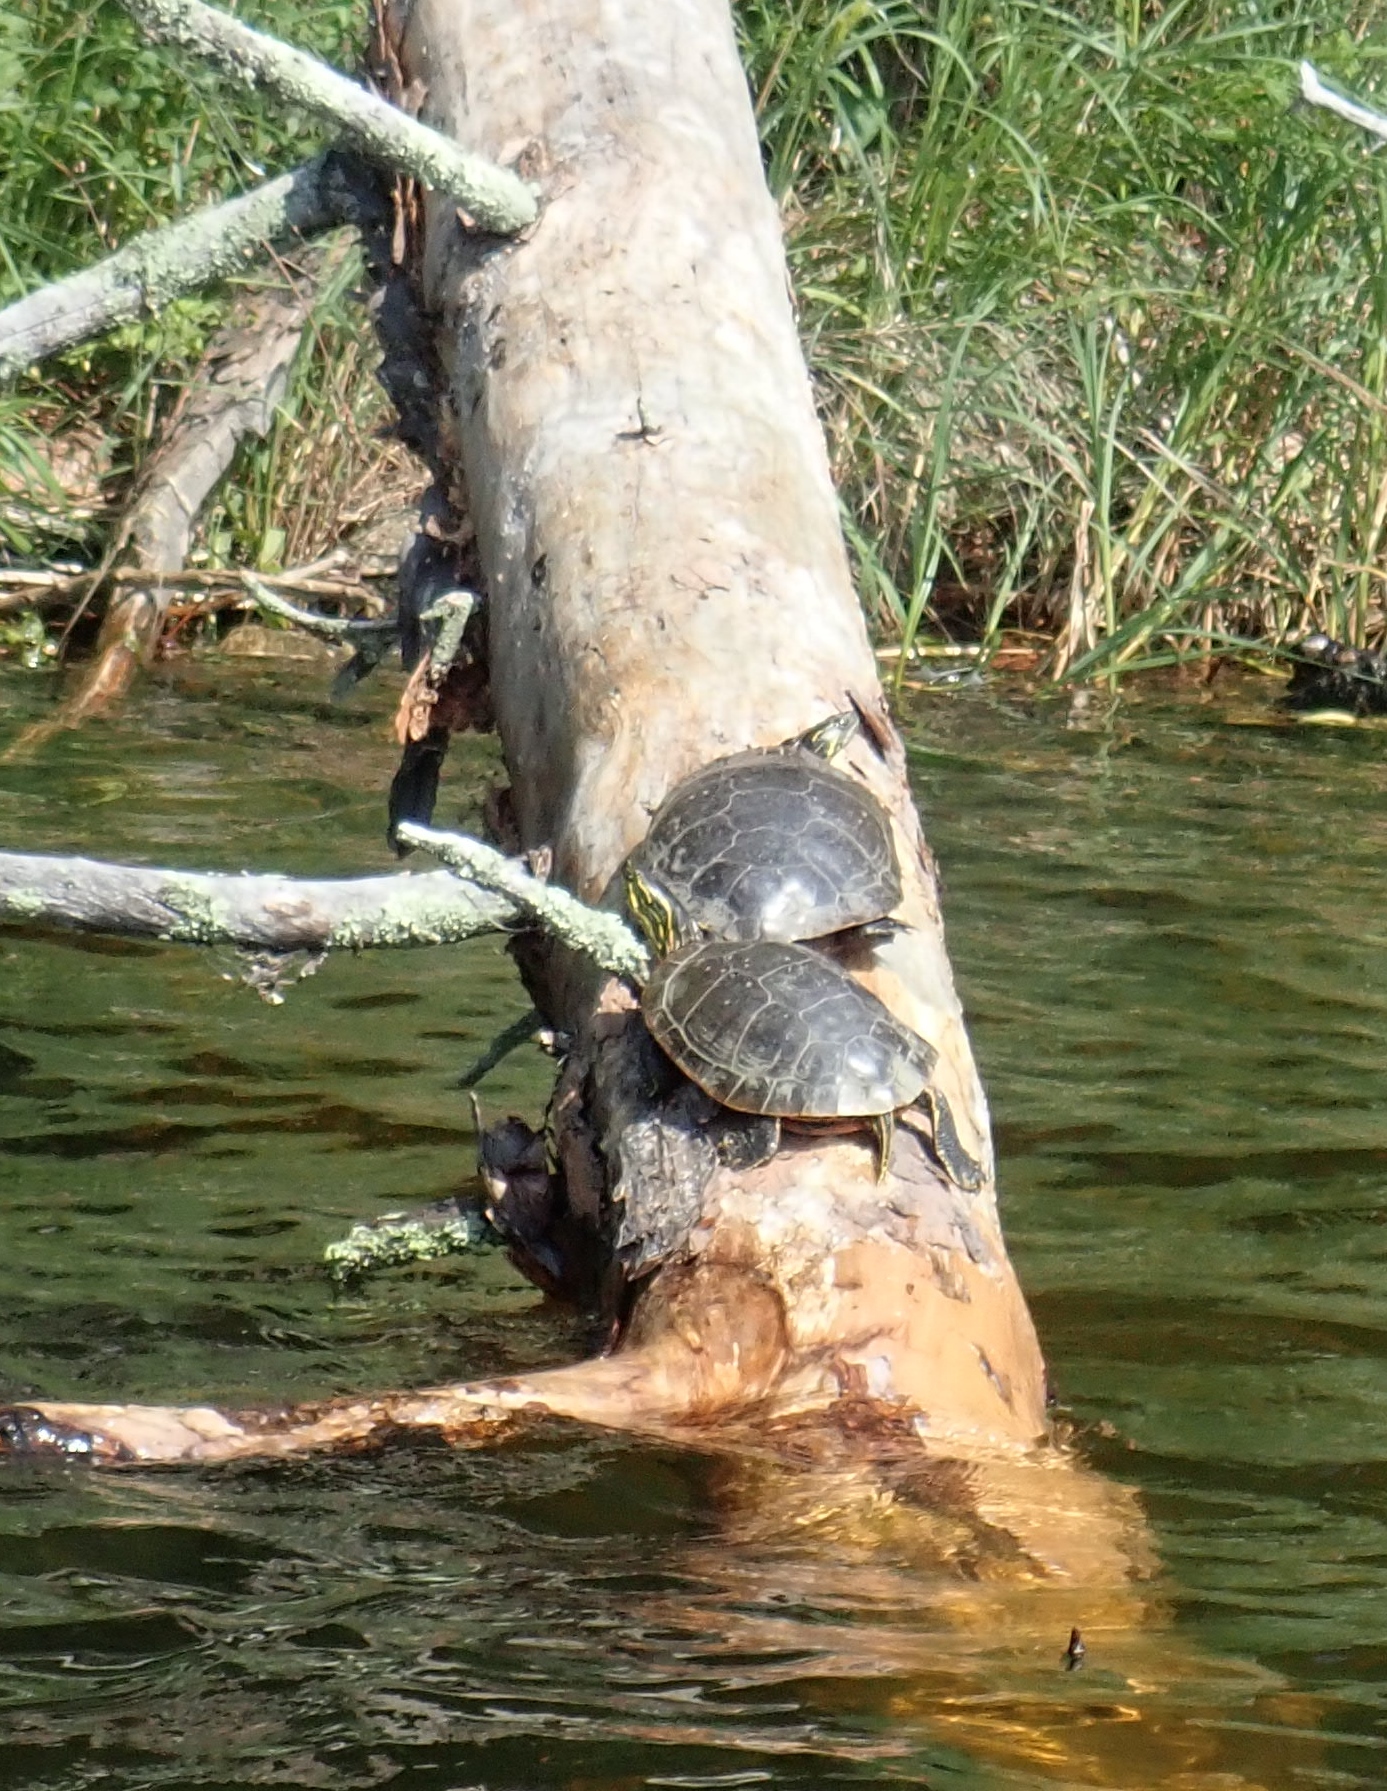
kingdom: Animalia
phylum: Chordata
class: Testudines
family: Emydidae
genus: Chrysemys
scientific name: Chrysemys picta
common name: Painted turtle
